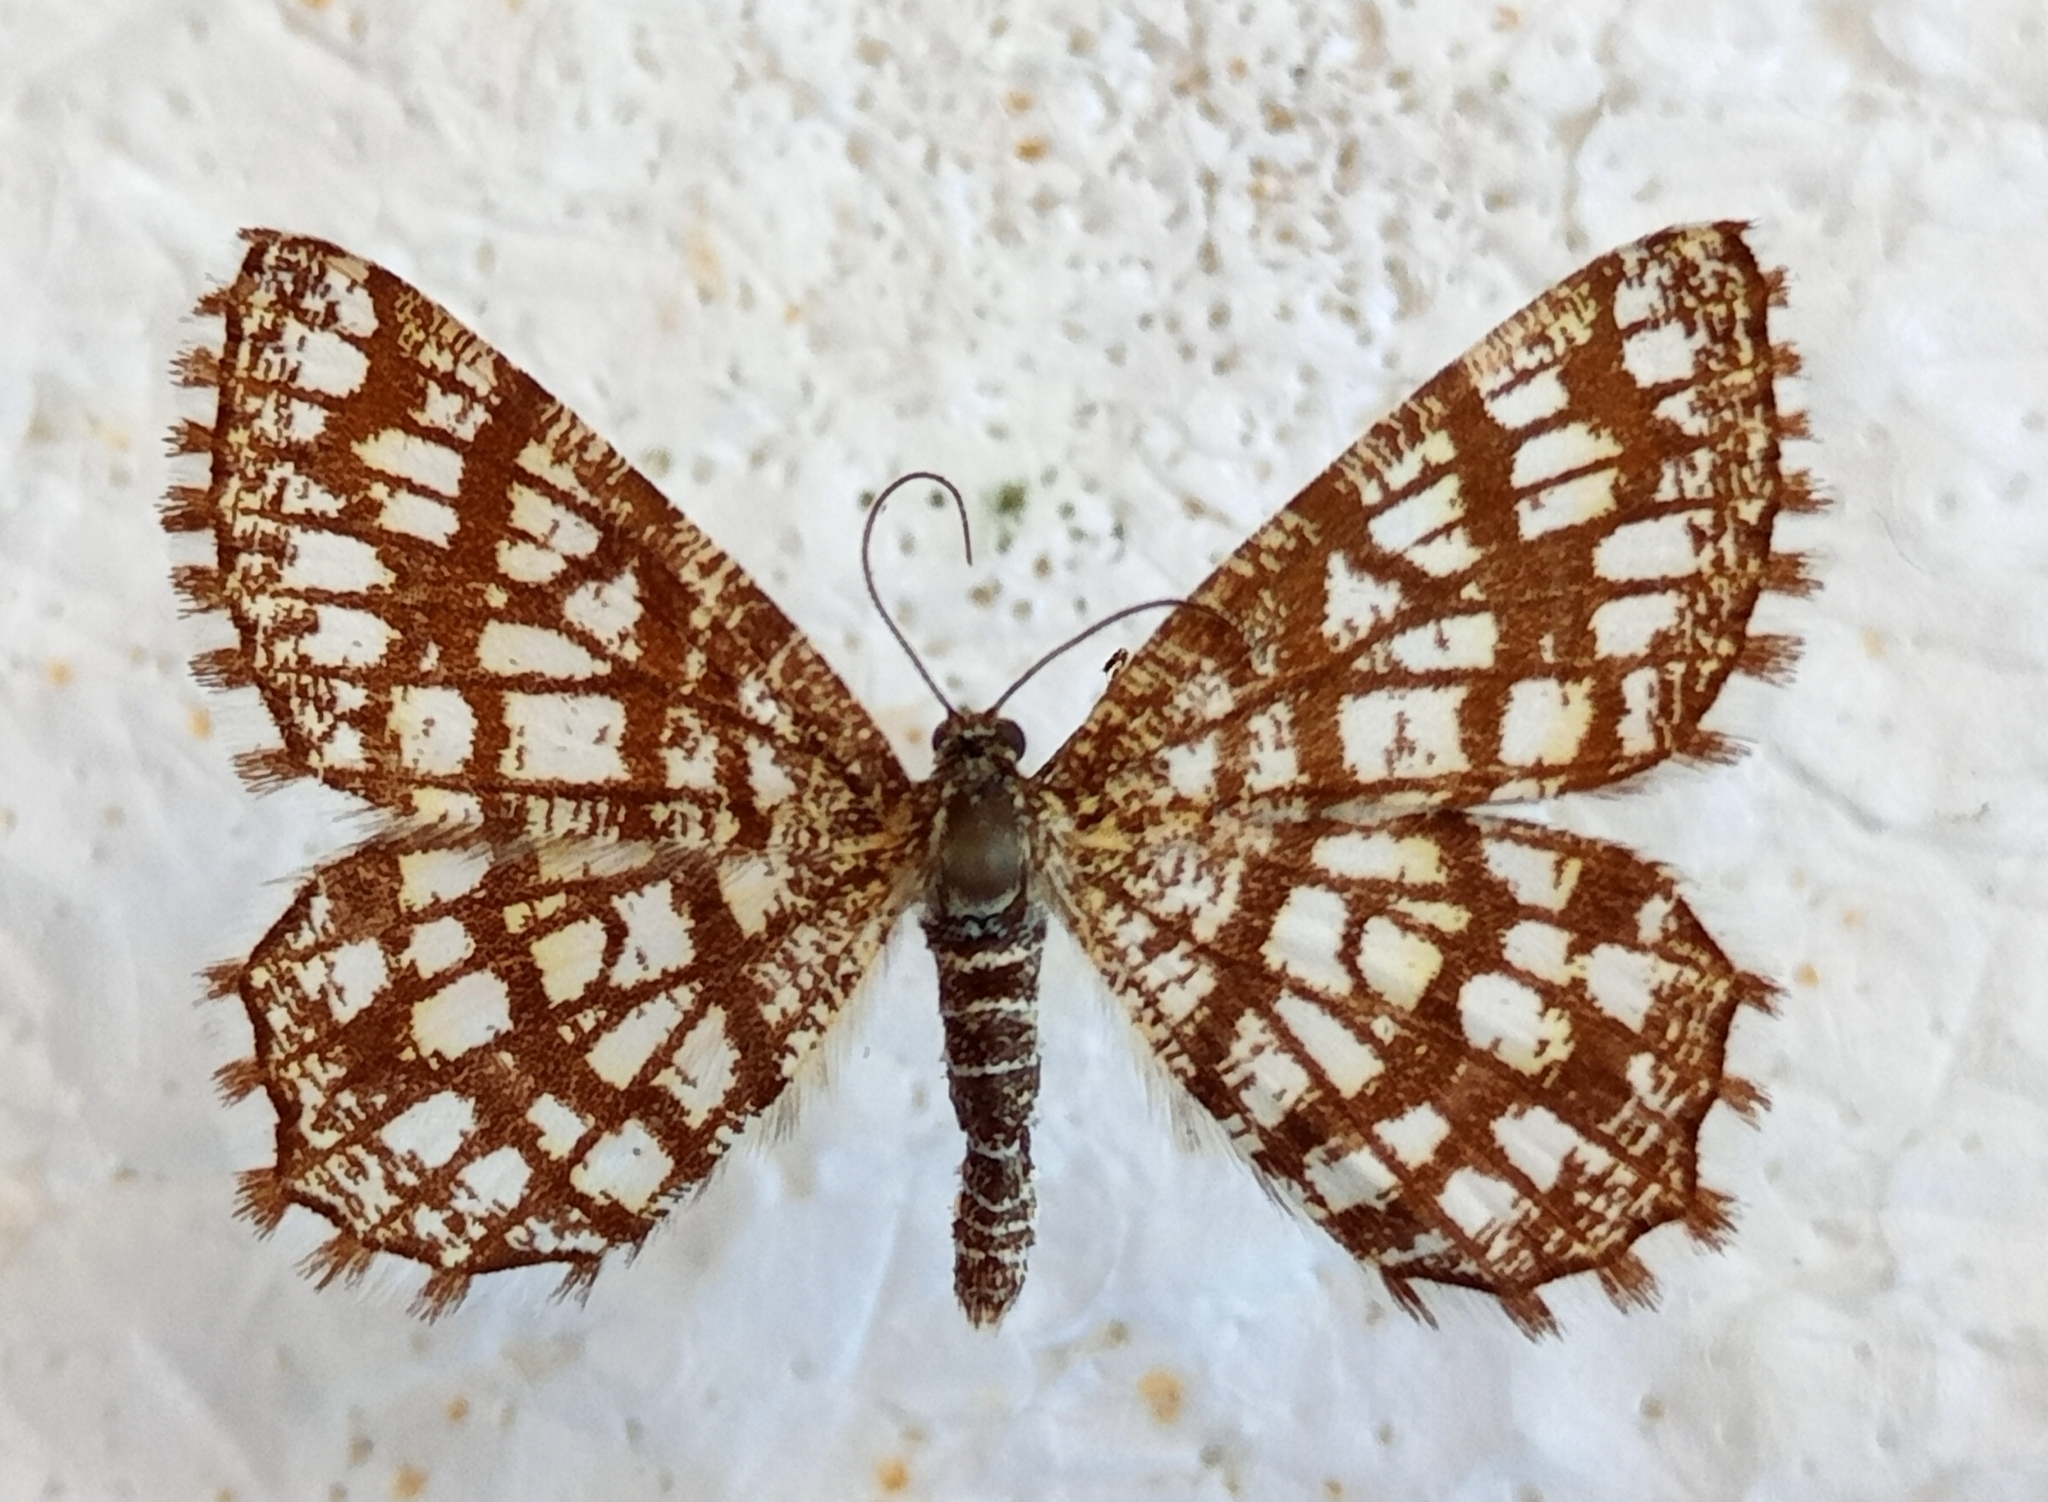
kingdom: Animalia
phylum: Arthropoda
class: Insecta
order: Lepidoptera
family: Geometridae
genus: Chiasmia
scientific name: Chiasmia clathrata
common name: Latticed heath
